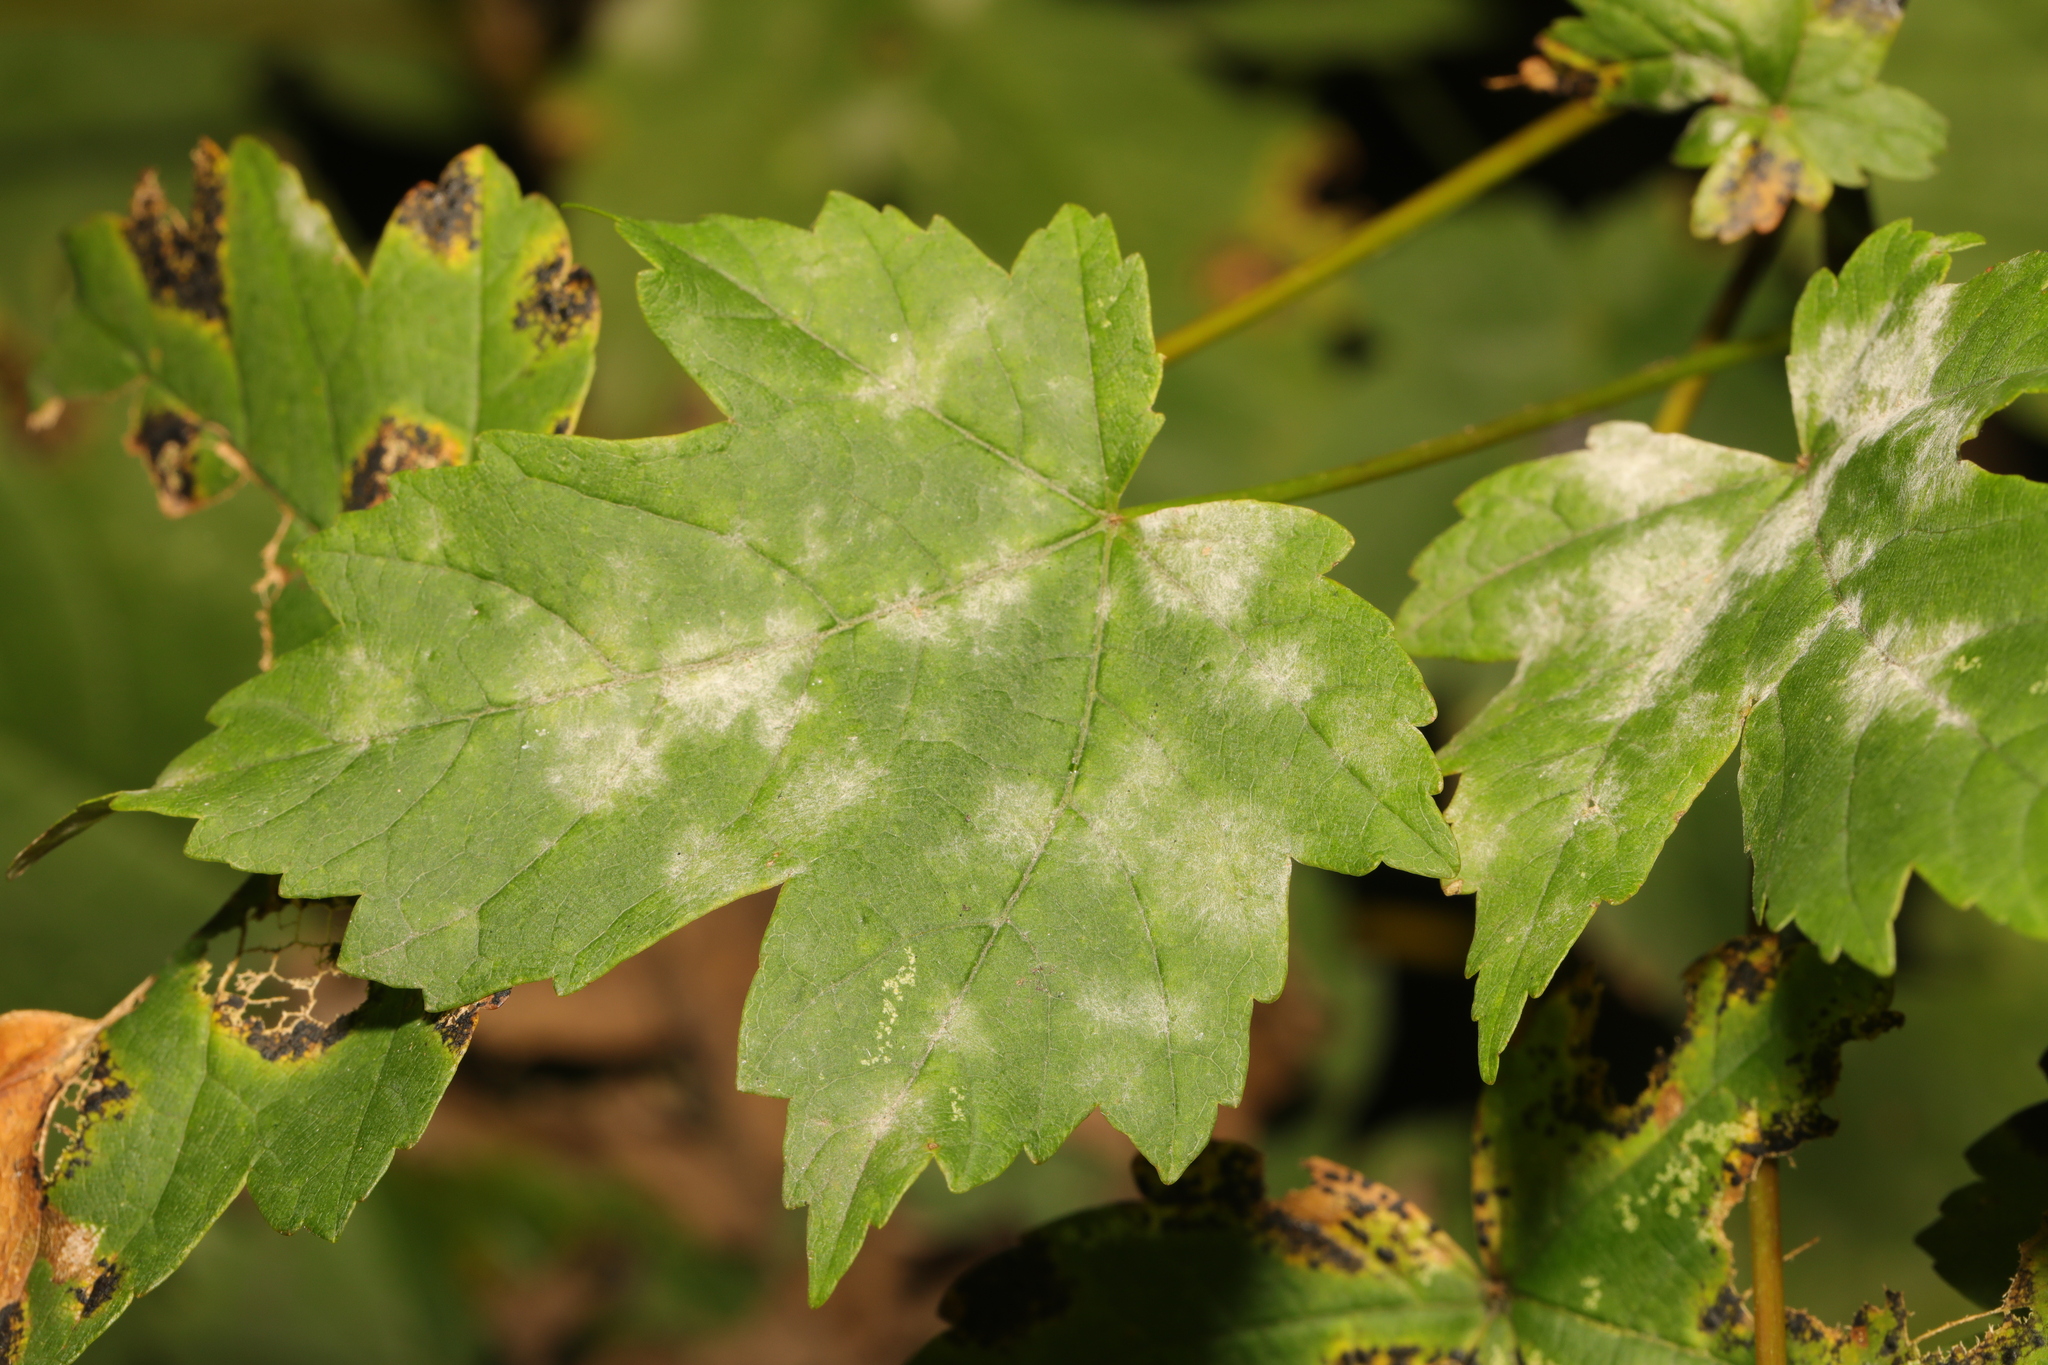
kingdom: Plantae
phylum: Tracheophyta
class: Magnoliopsida
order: Sapindales
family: Sapindaceae
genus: Acer
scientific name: Acer pseudoplatanus
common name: Sycamore
